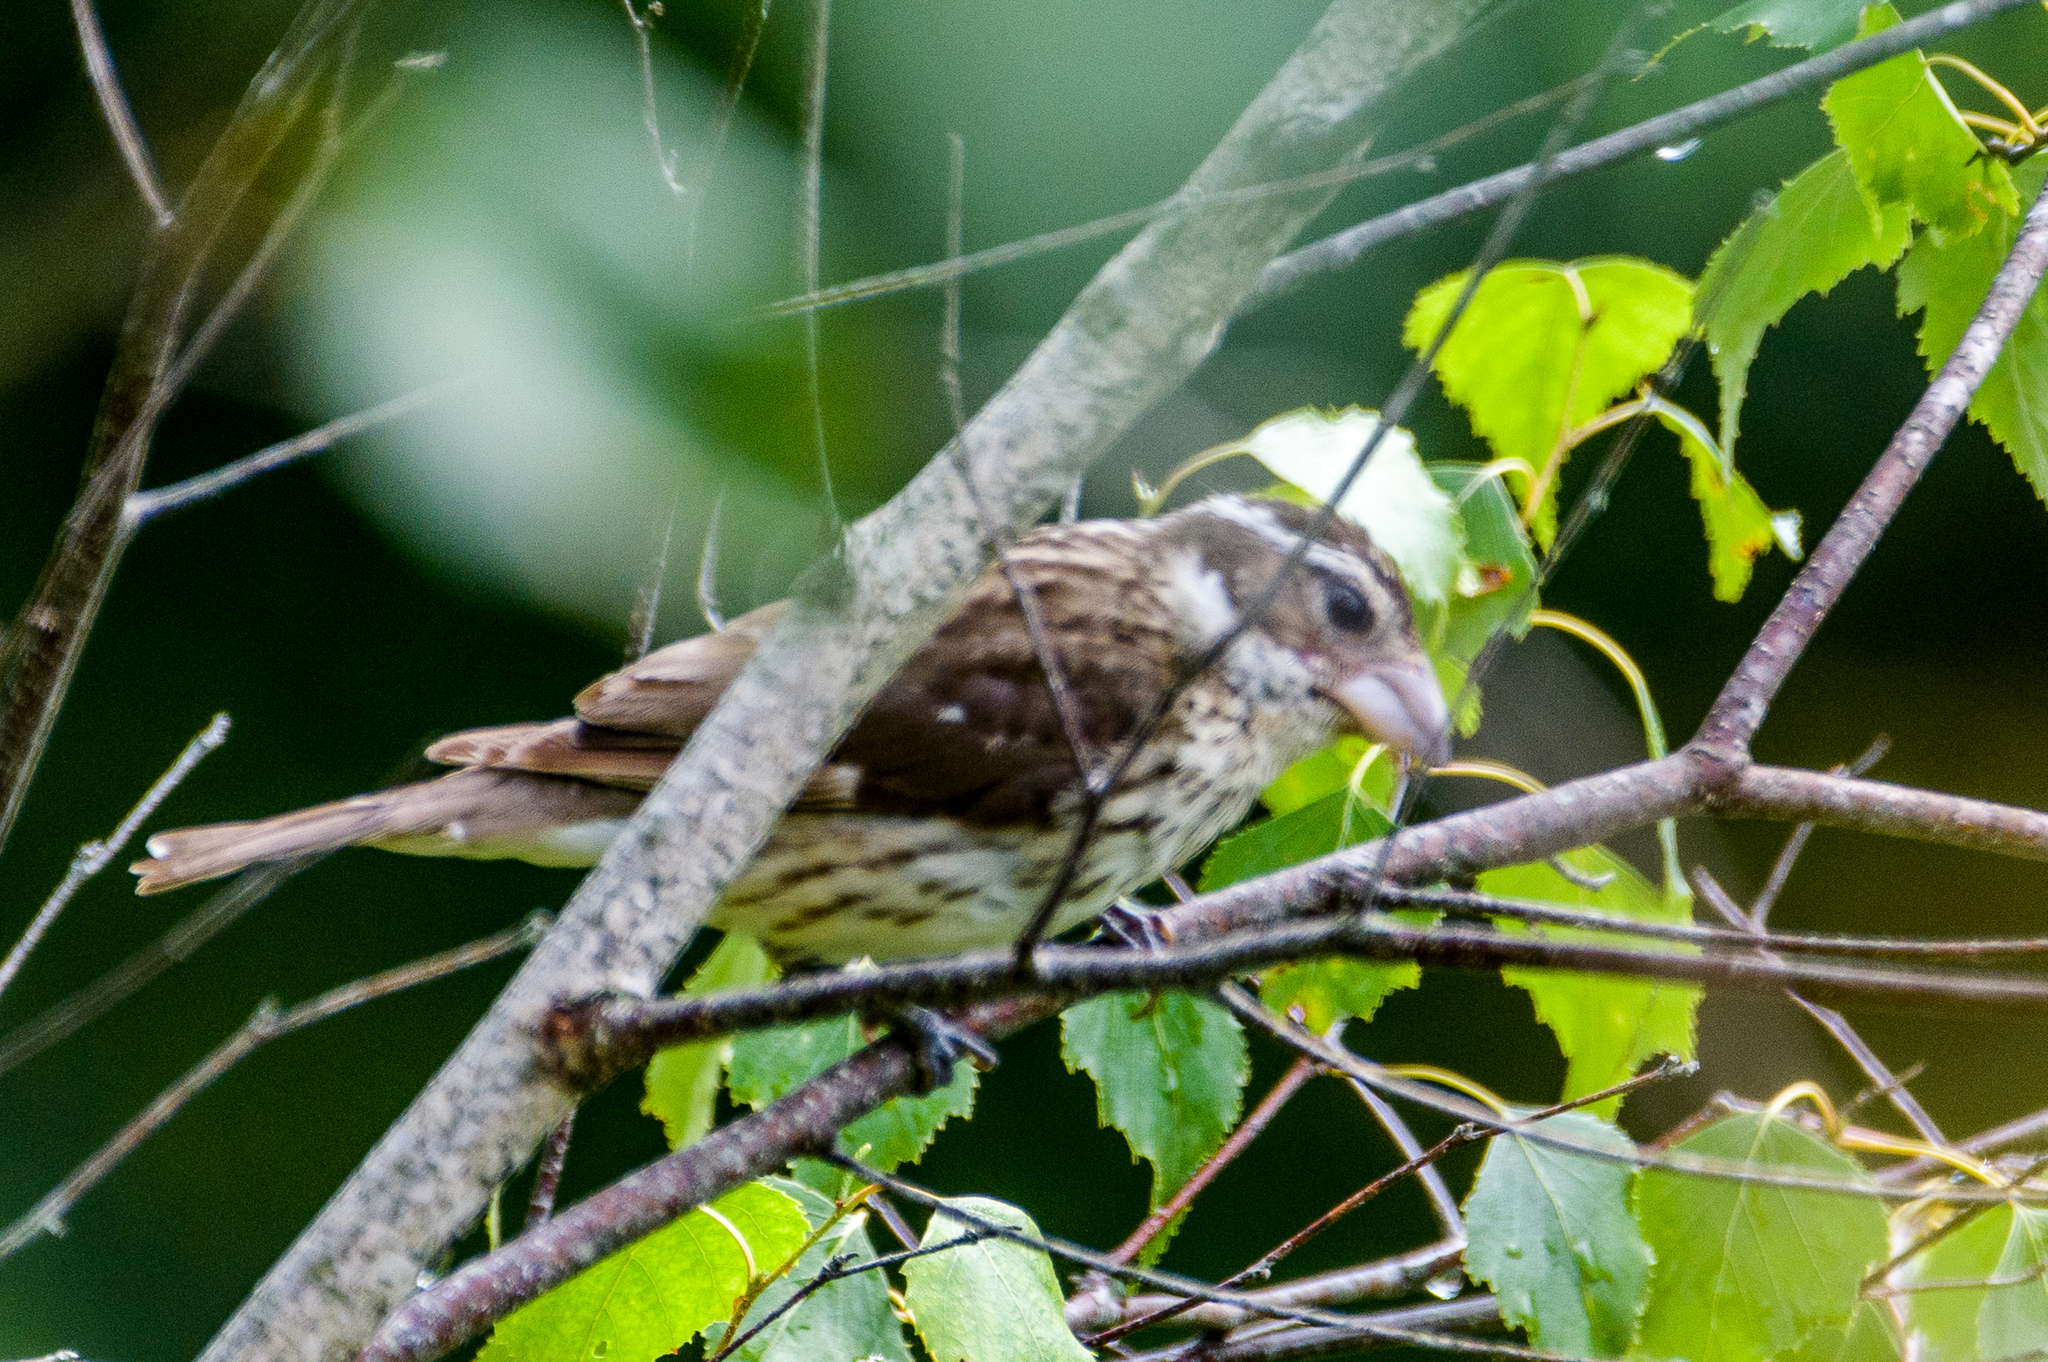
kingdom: Animalia
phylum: Chordata
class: Aves
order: Passeriformes
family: Cardinalidae
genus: Pheucticus
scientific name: Pheucticus ludovicianus
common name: Rose-breasted grosbeak
